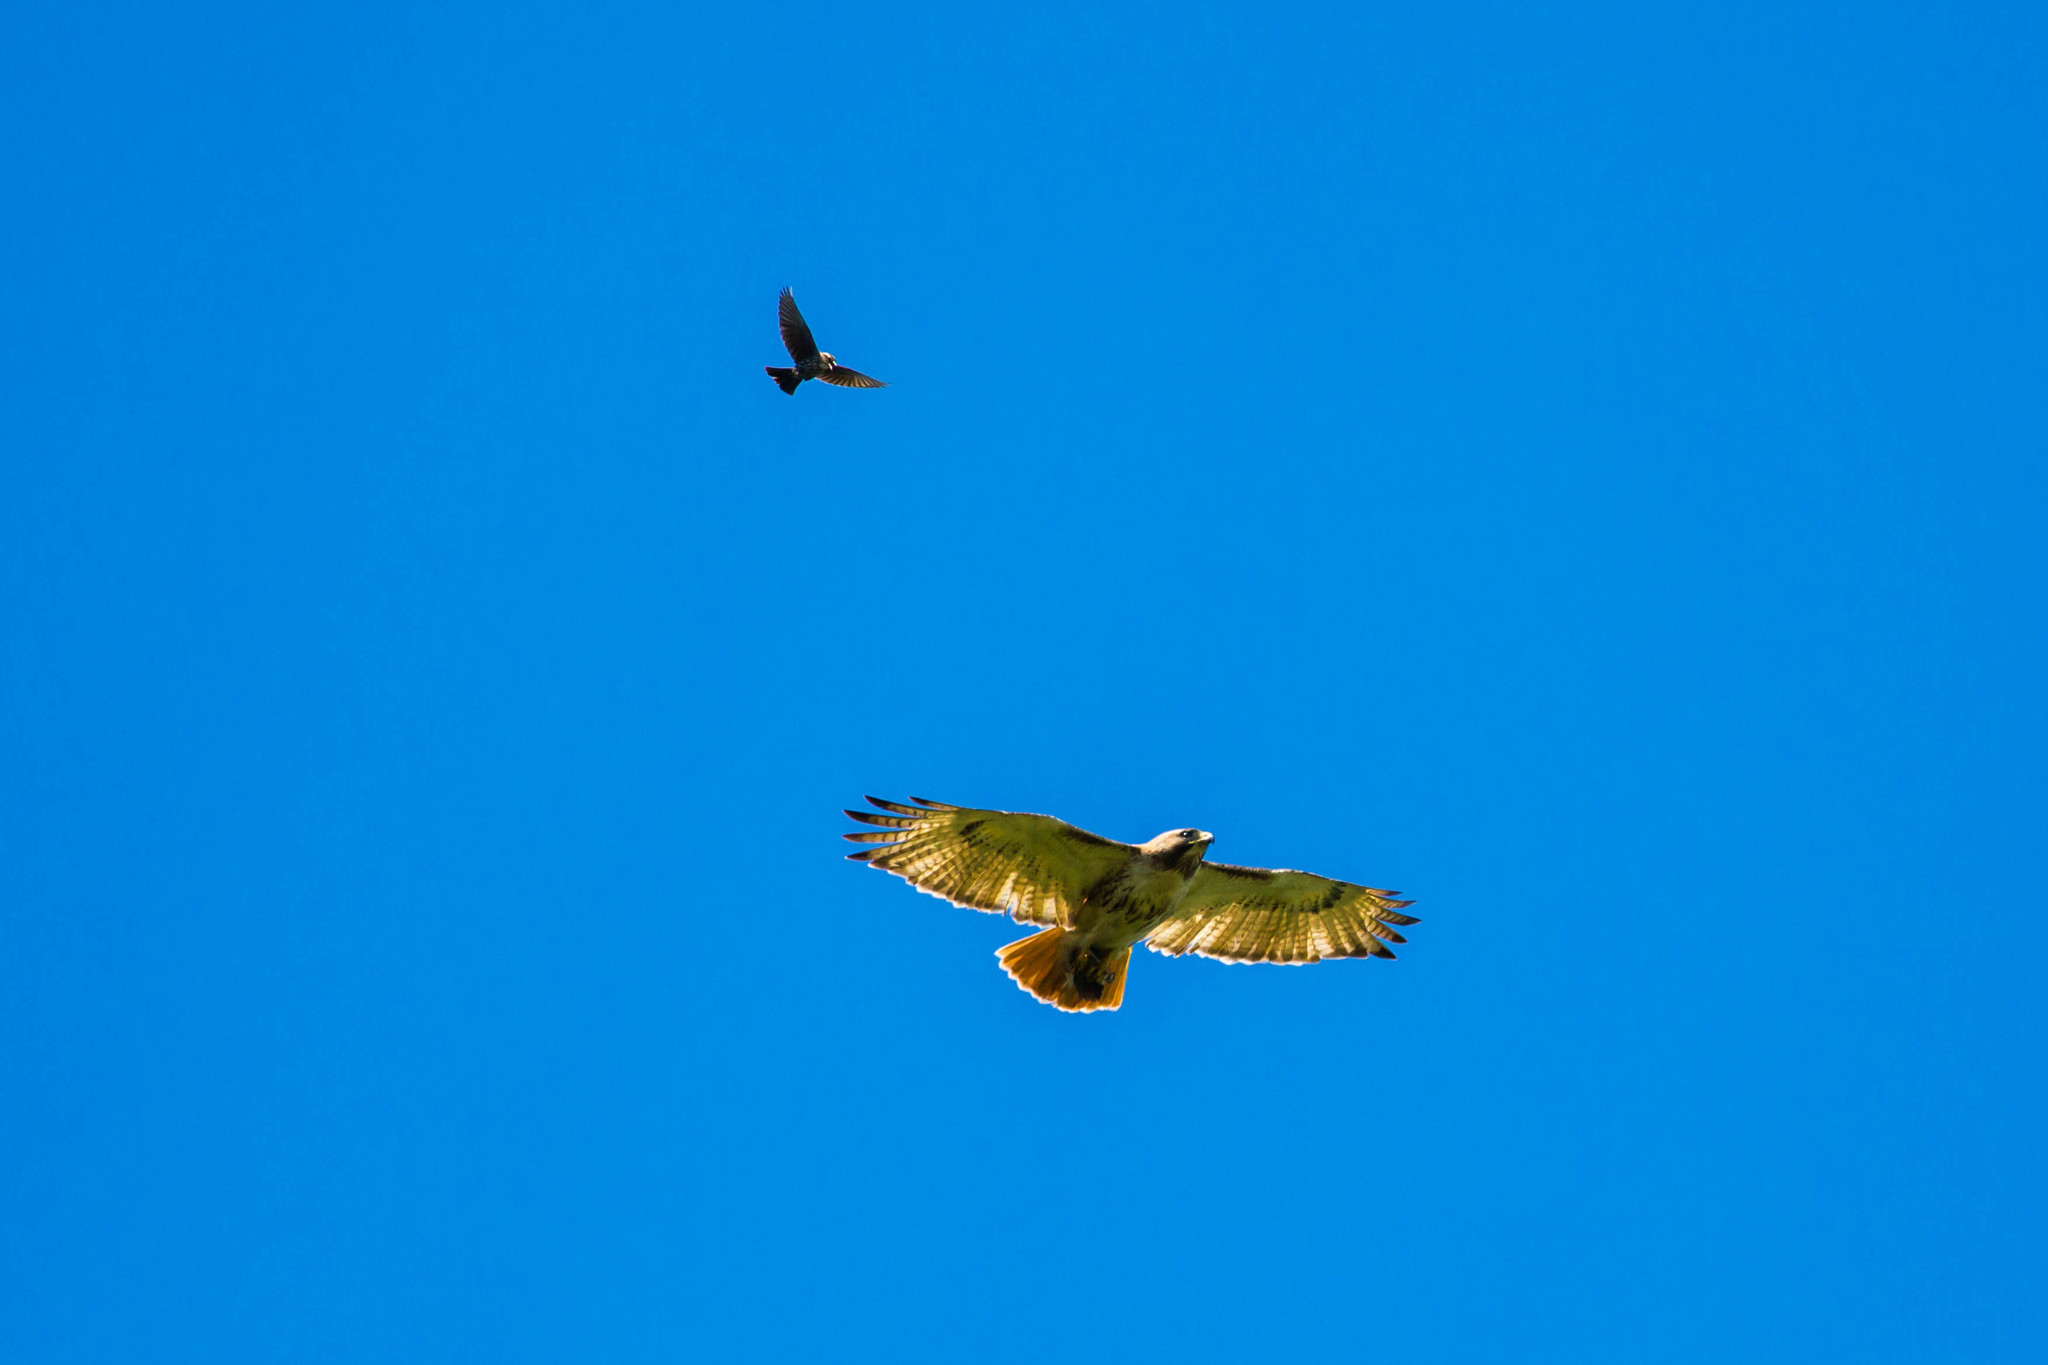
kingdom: Animalia
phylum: Chordata
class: Aves
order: Accipitriformes
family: Accipitridae
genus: Buteo
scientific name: Buteo jamaicensis
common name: Red-tailed hawk
